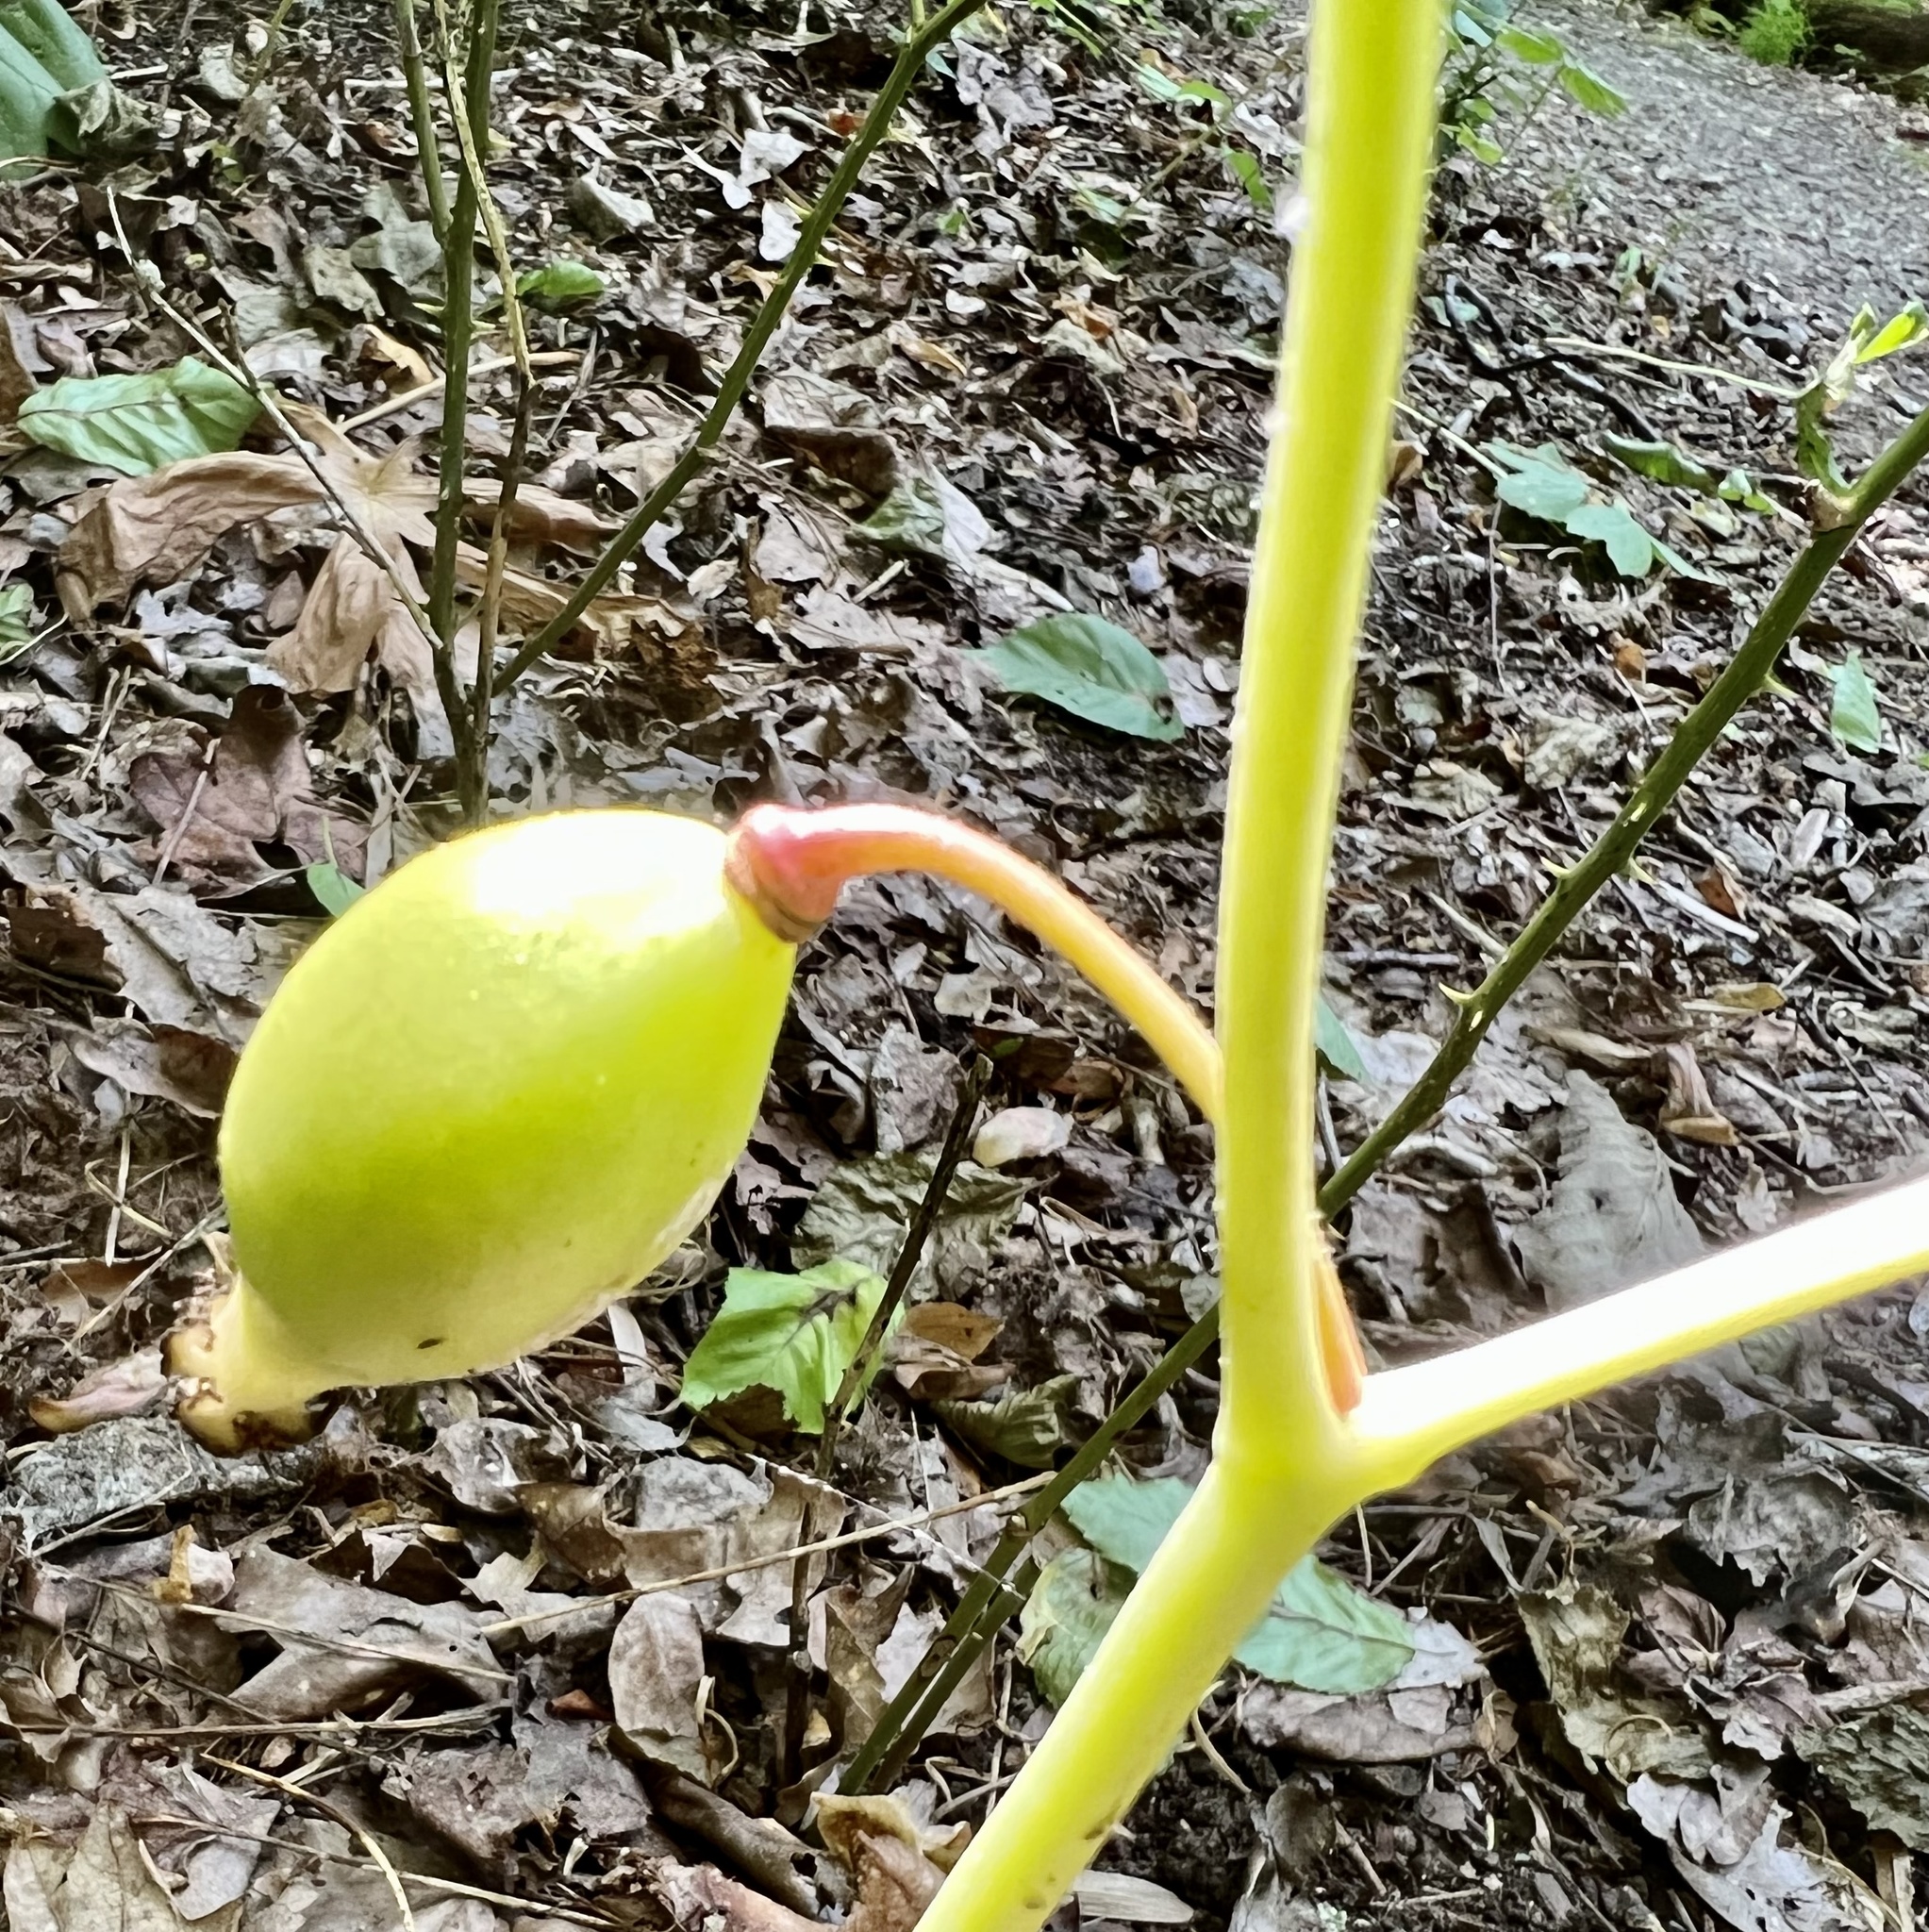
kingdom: Plantae
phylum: Tracheophyta
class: Magnoliopsida
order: Ranunculales
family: Berberidaceae
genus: Podophyllum
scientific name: Podophyllum peltatum
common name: Wild mandrake
